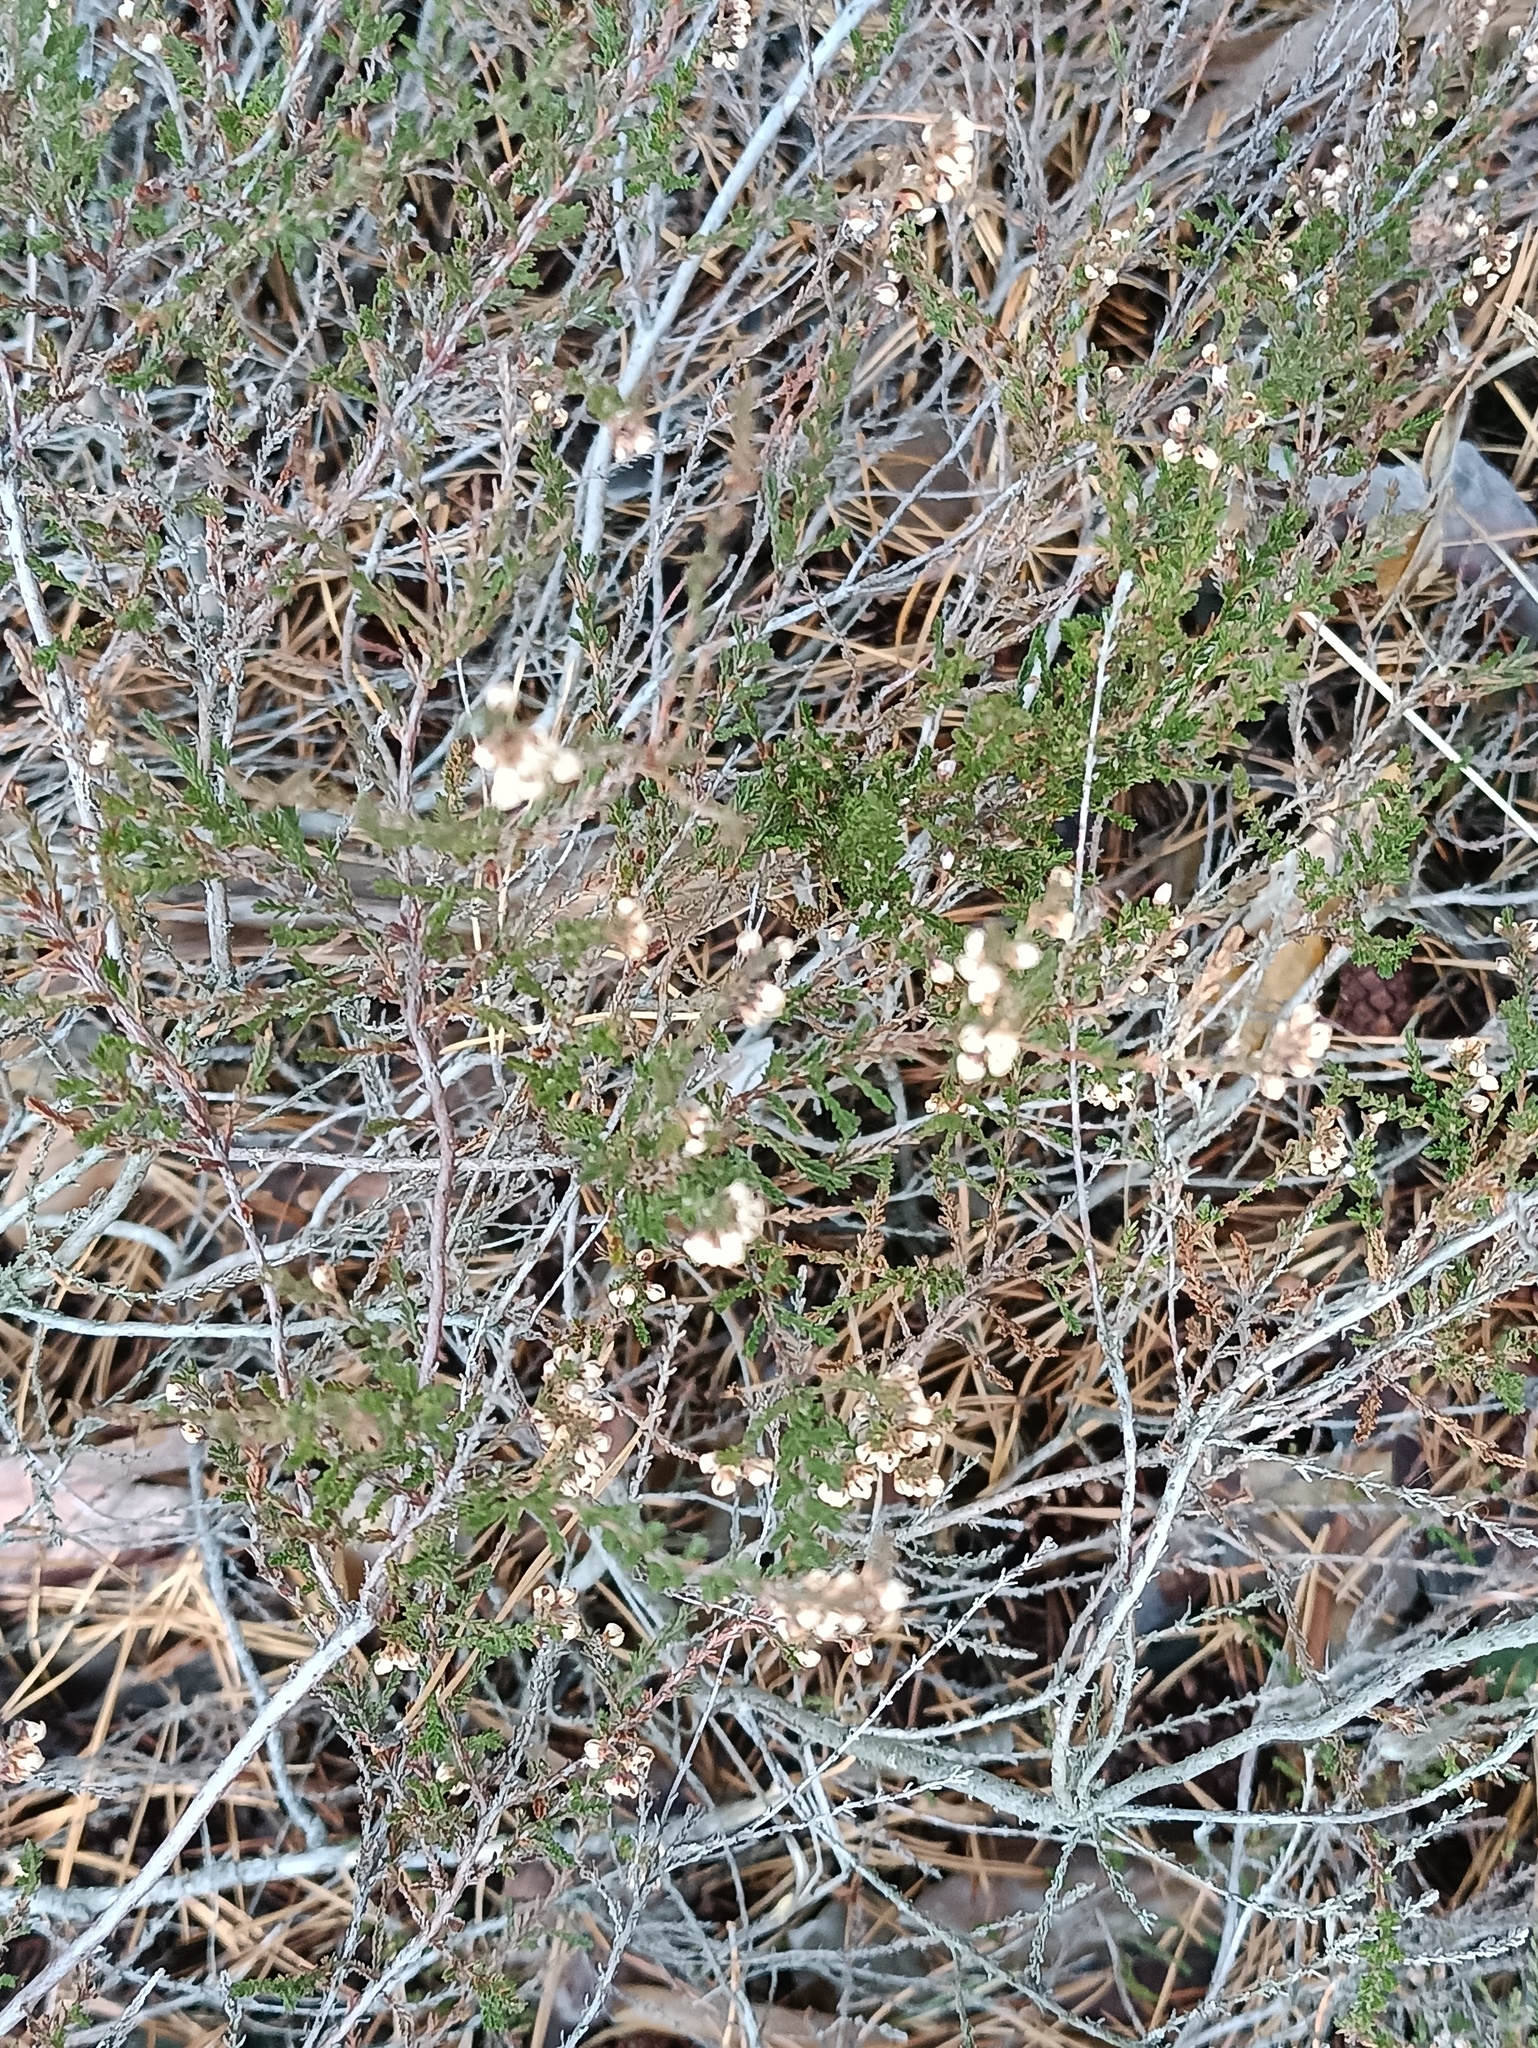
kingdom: Plantae
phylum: Tracheophyta
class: Magnoliopsida
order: Ericales
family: Ericaceae
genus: Calluna
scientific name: Calluna vulgaris
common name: Heather
